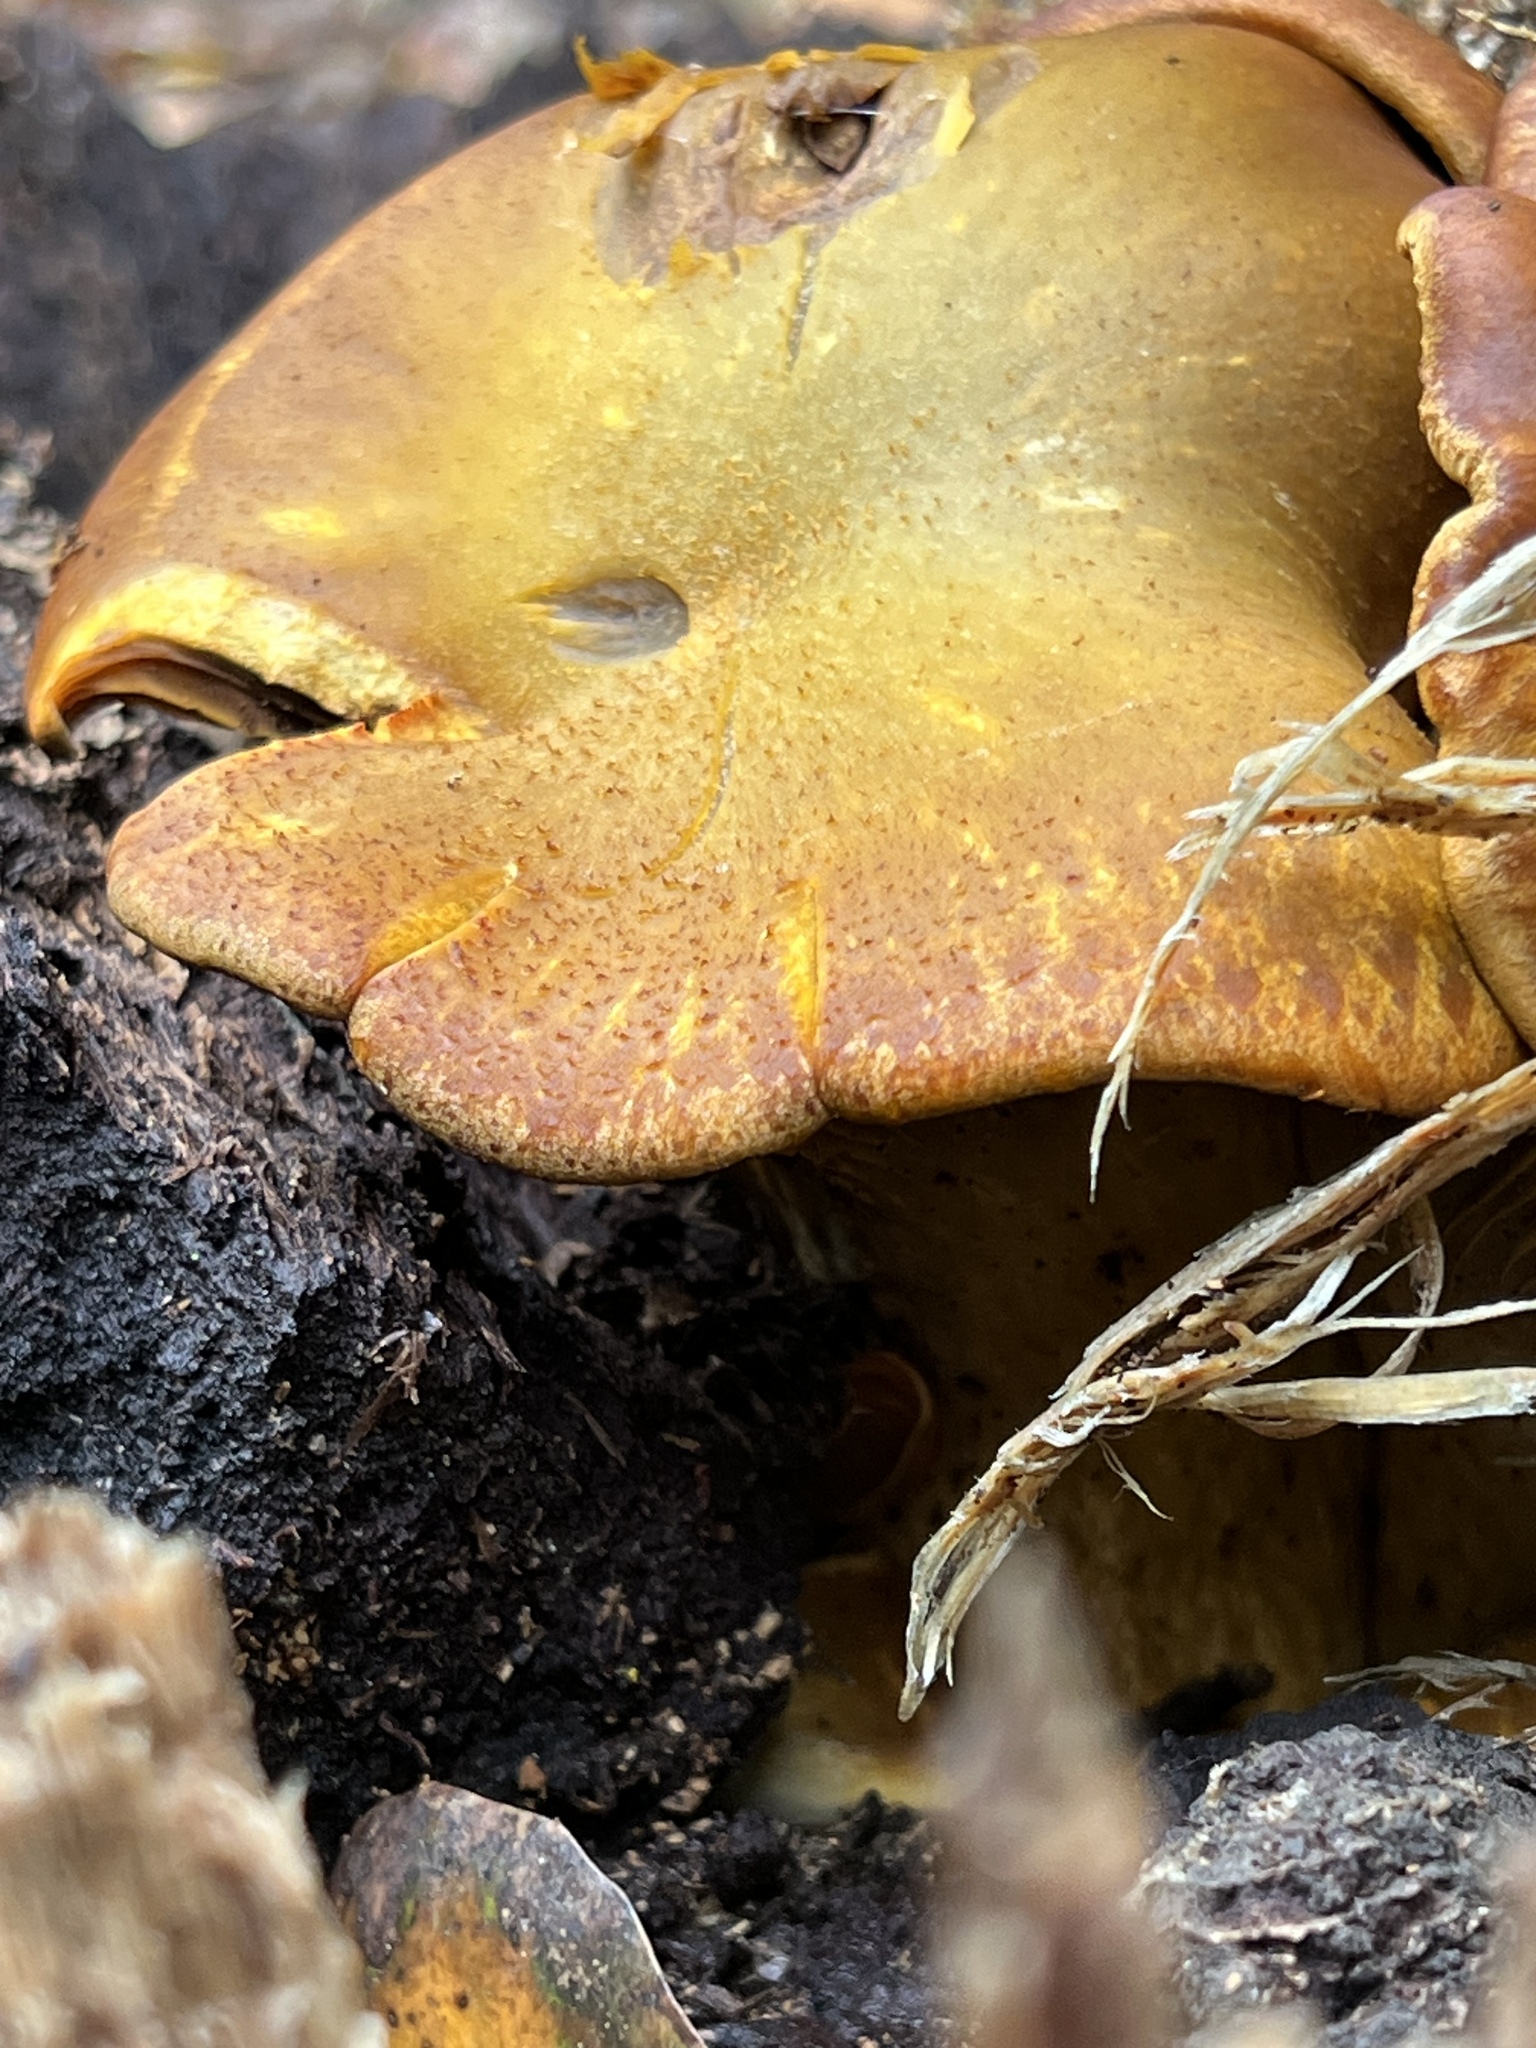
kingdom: Fungi
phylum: Basidiomycota
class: Agaricomycetes
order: Agaricales
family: Omphalotaceae
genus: Omphalotus
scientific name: Omphalotus olivascens
